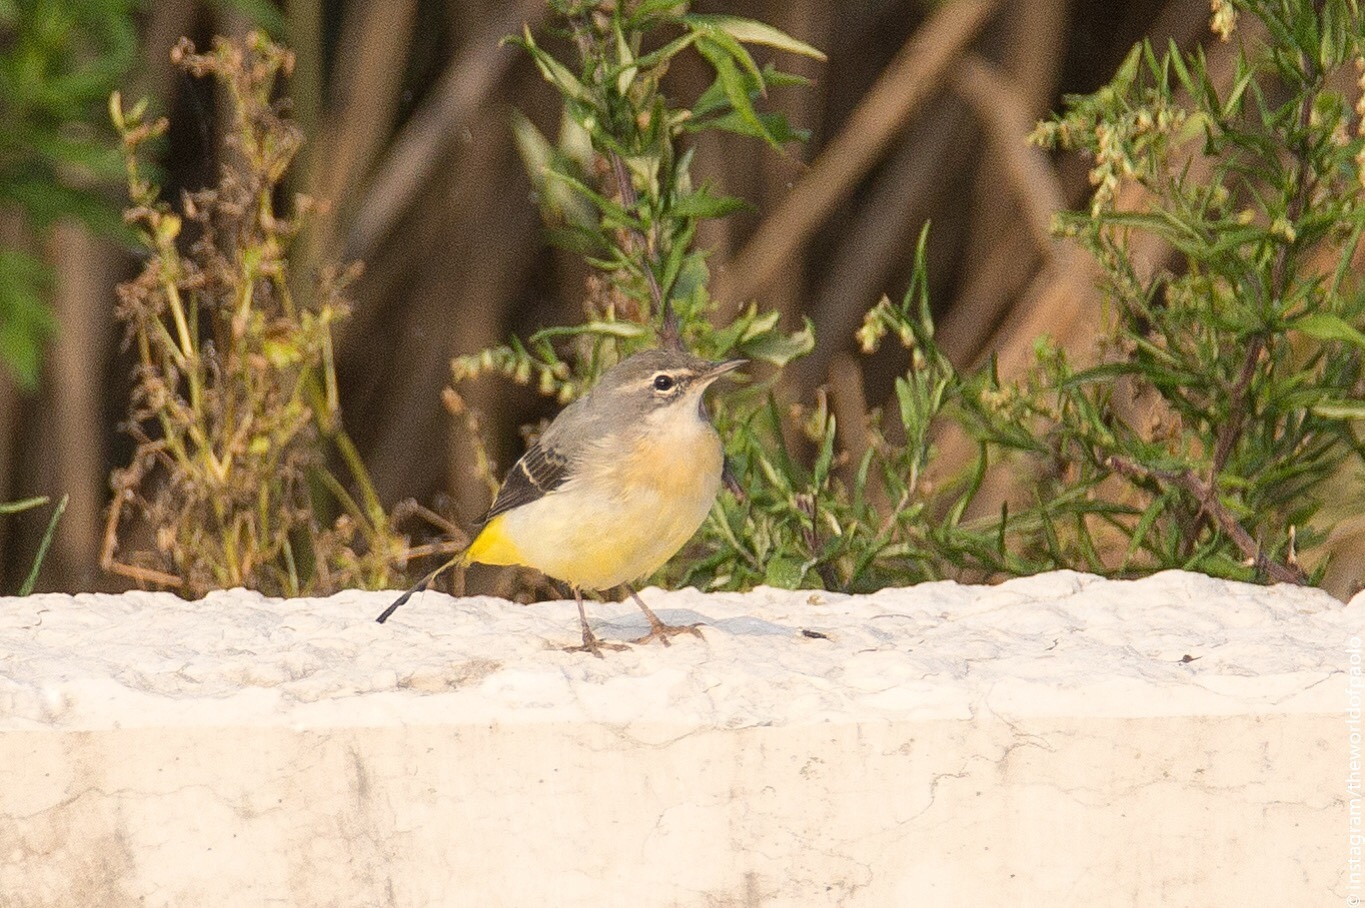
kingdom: Animalia
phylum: Chordata
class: Aves
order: Passeriformes
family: Motacillidae
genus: Motacilla
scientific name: Motacilla cinerea
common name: Grey wagtail
